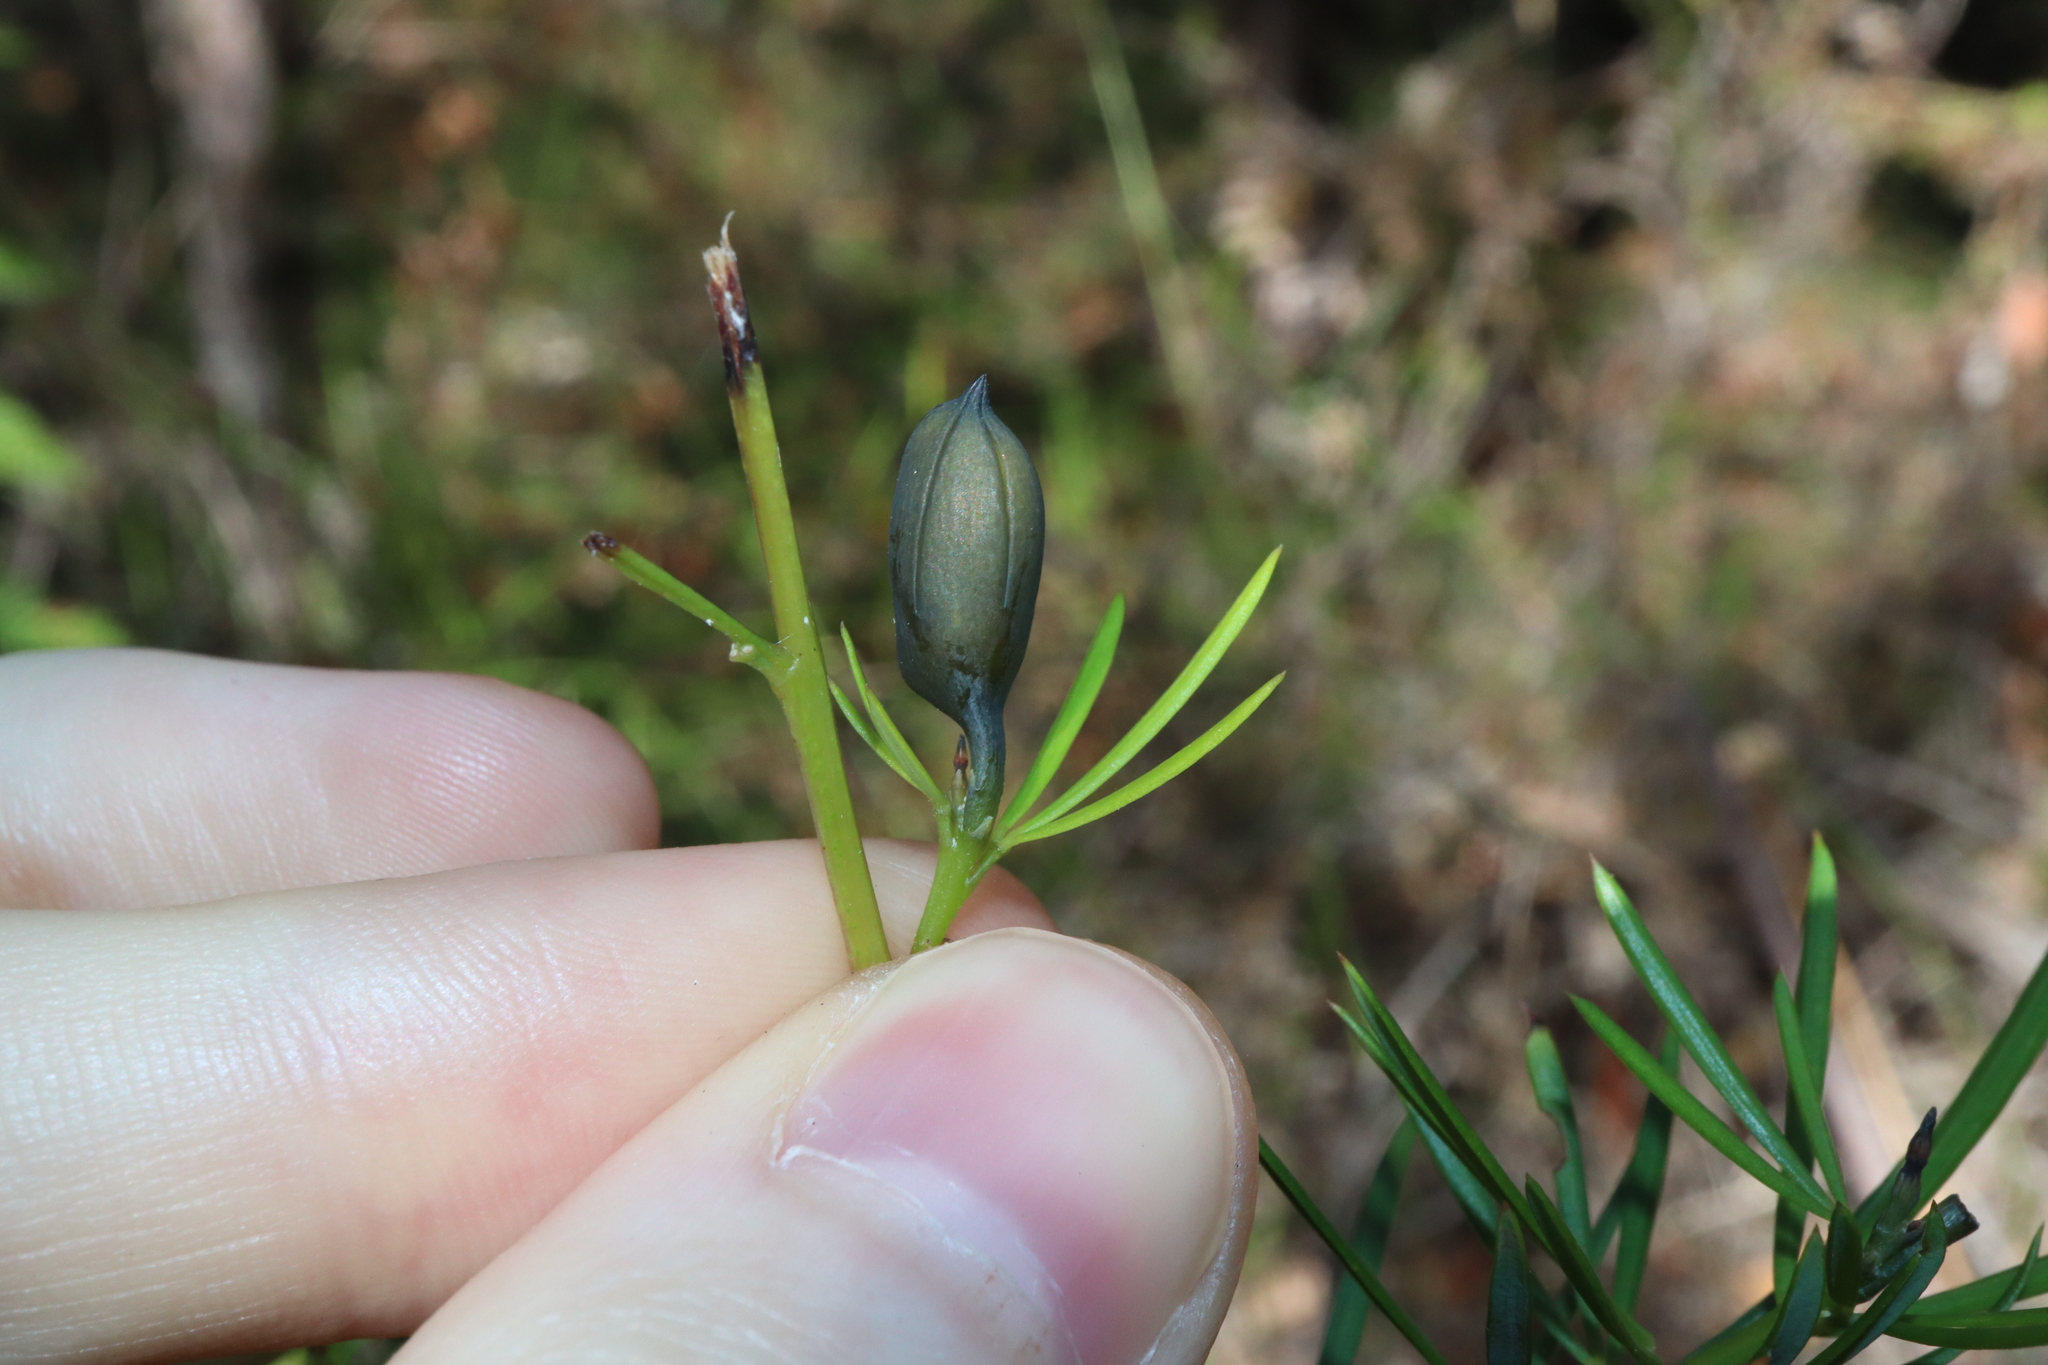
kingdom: Plantae
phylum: Tracheophyta
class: Magnoliopsida
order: Fabales
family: Fabaceae
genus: Gompholobium
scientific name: Gompholobium grandiflorum
